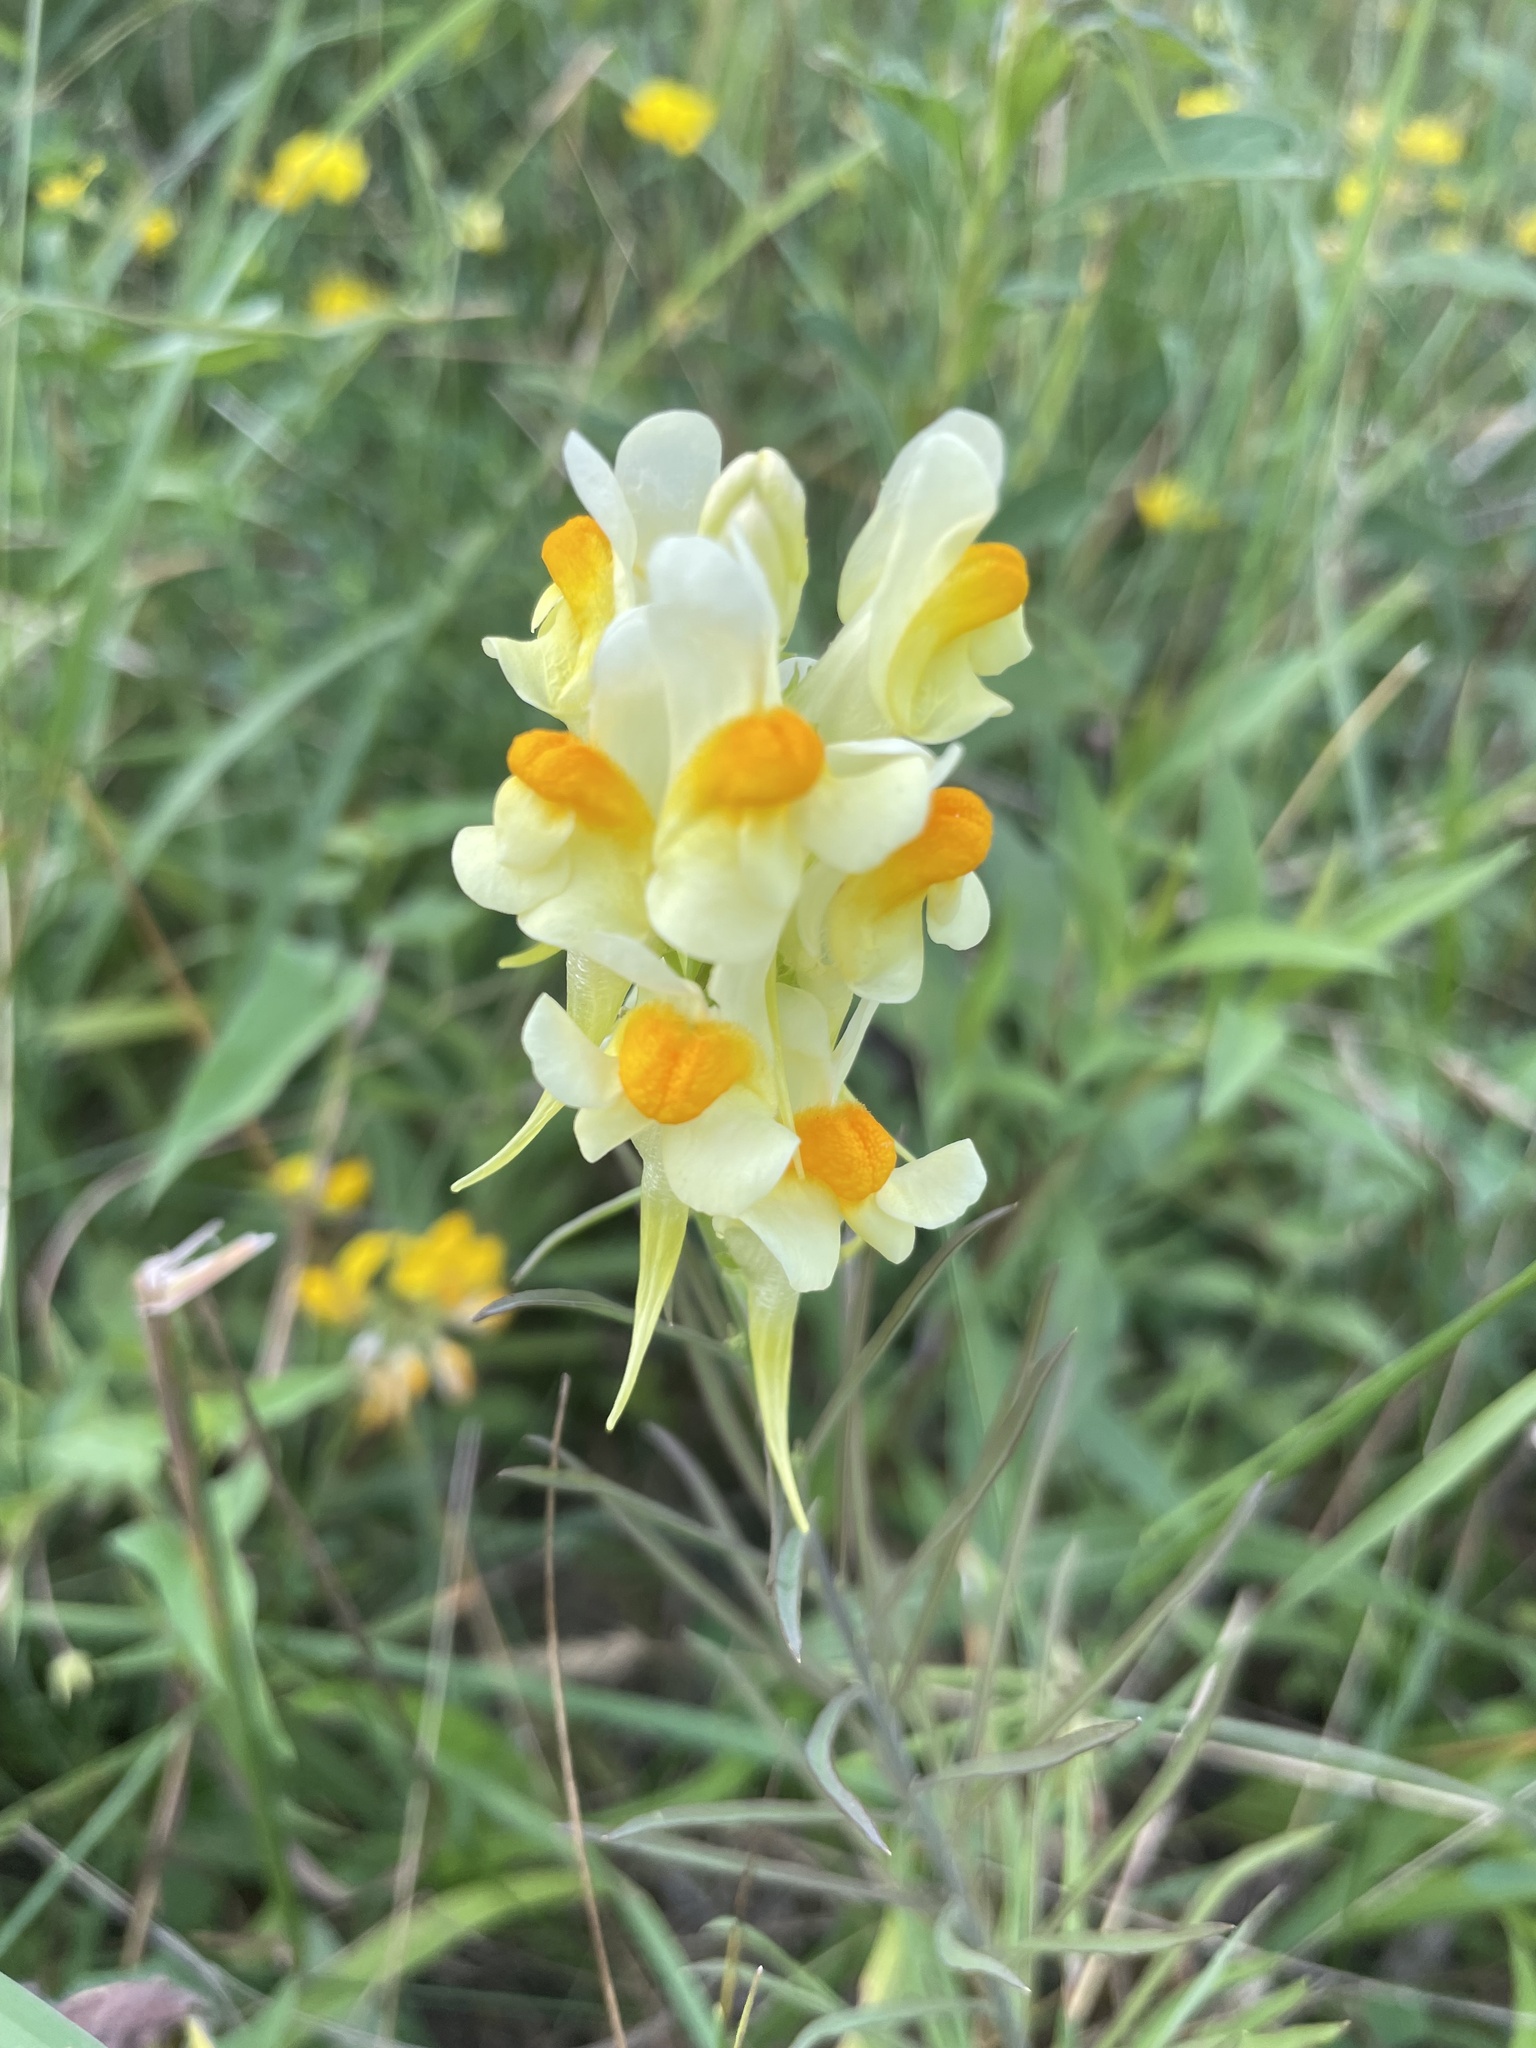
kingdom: Plantae
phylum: Tracheophyta
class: Magnoliopsida
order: Lamiales
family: Plantaginaceae
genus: Linaria
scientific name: Linaria vulgaris
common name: Butter and eggs
